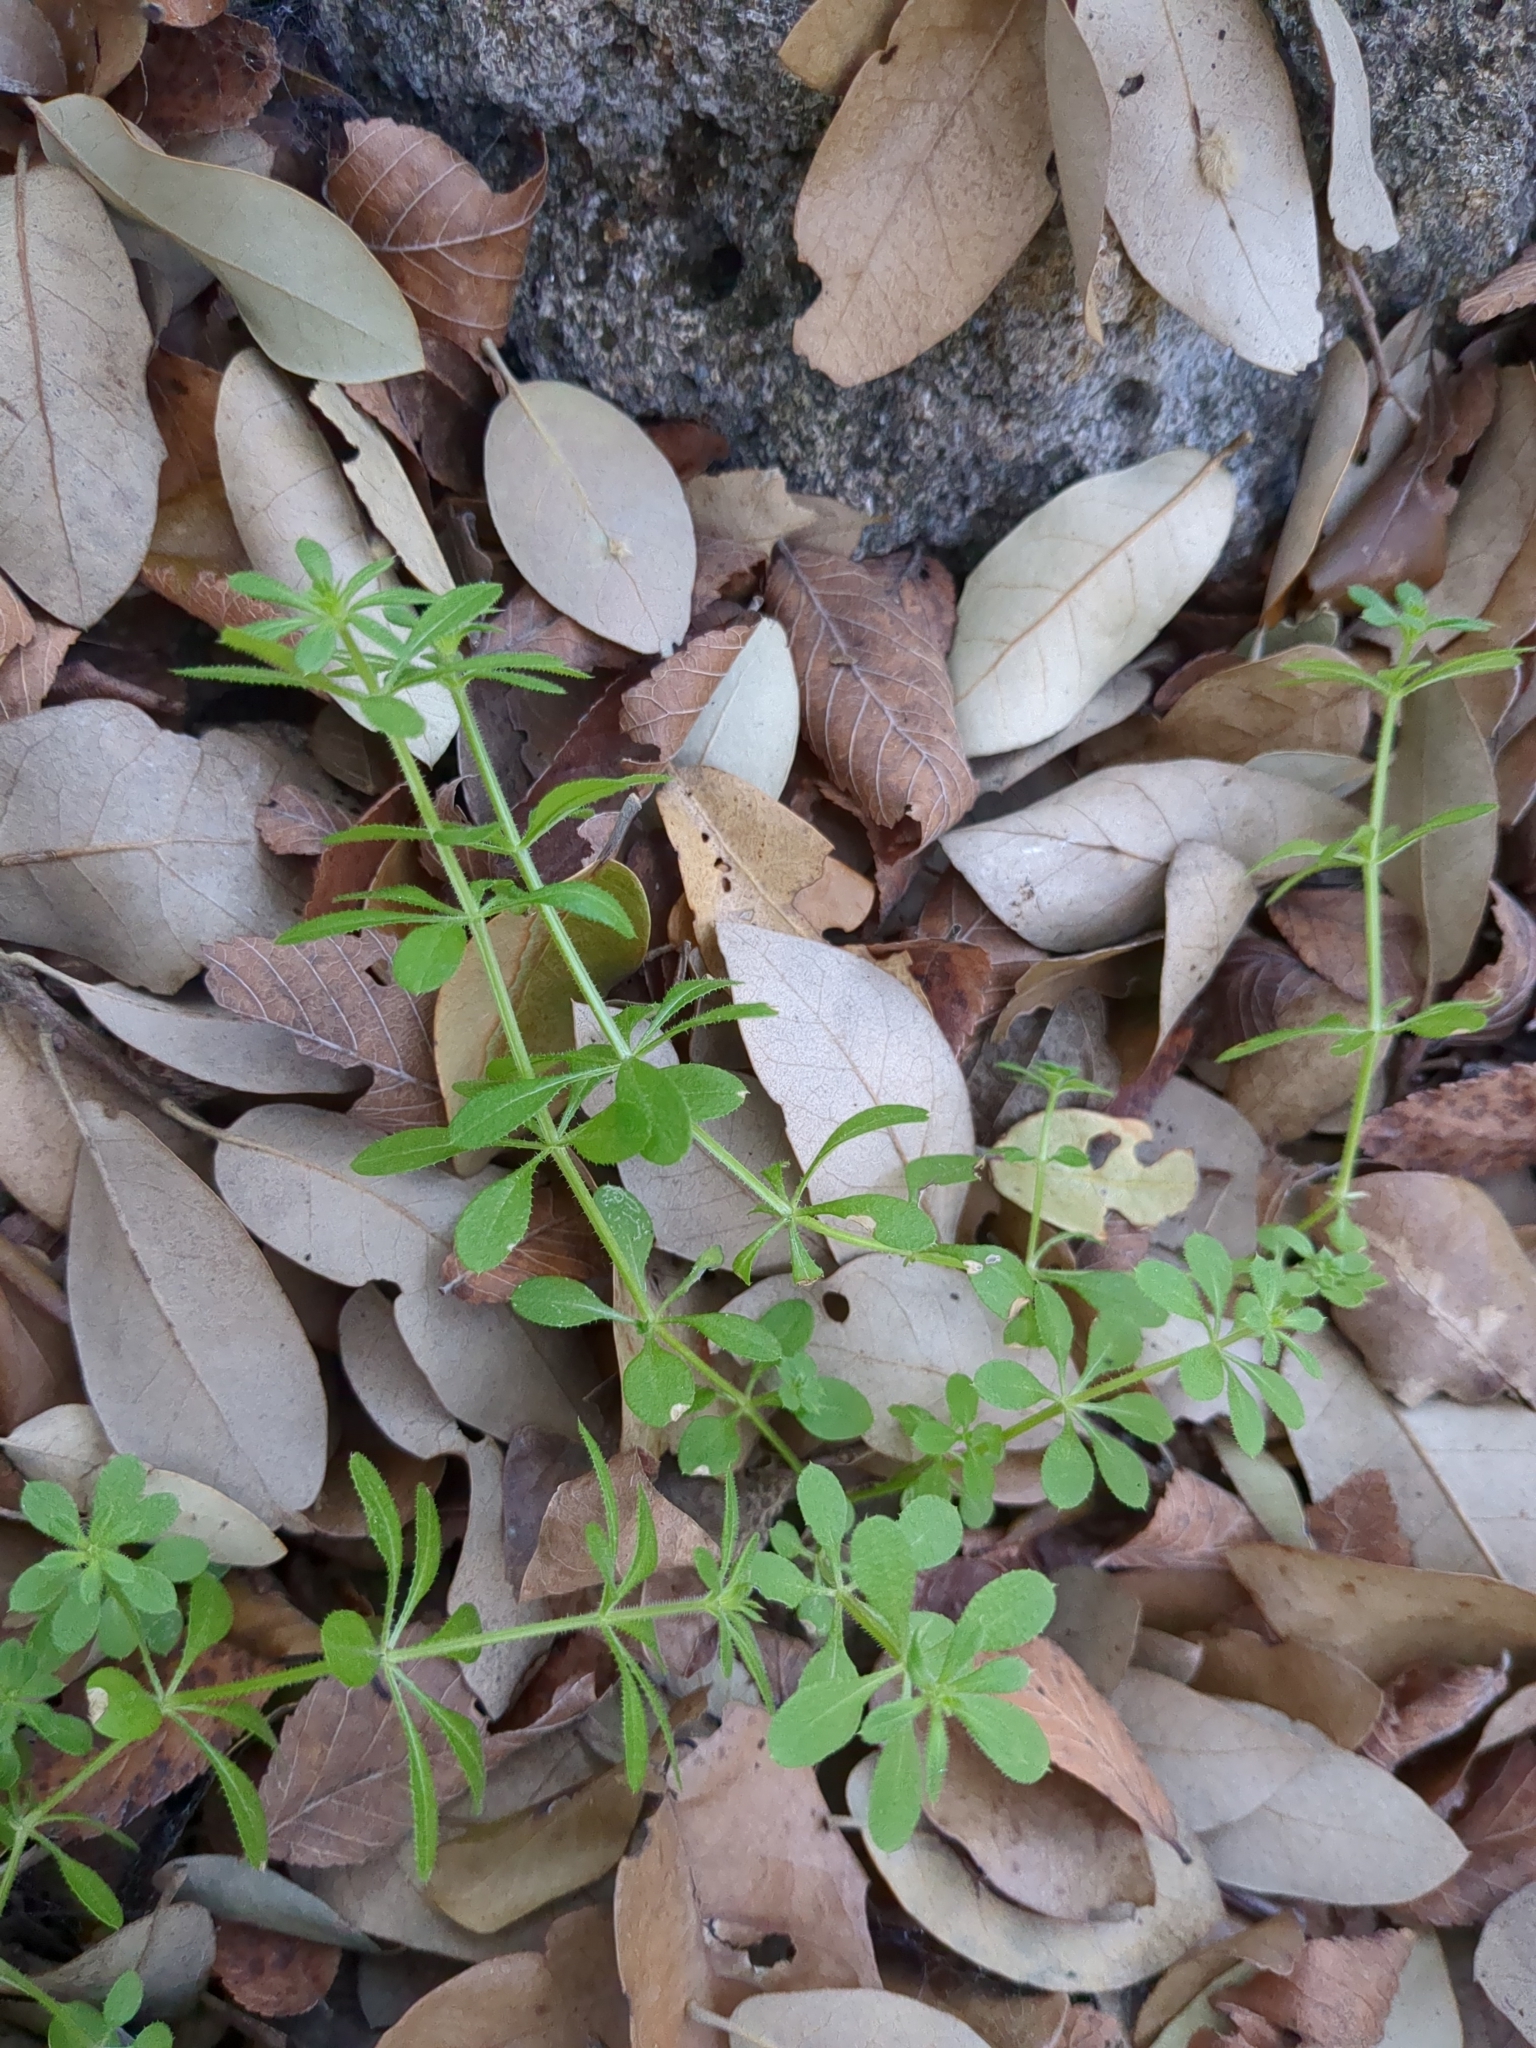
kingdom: Plantae
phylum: Tracheophyta
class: Magnoliopsida
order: Gentianales
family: Rubiaceae
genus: Galium
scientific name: Galium aparine
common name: Cleavers
